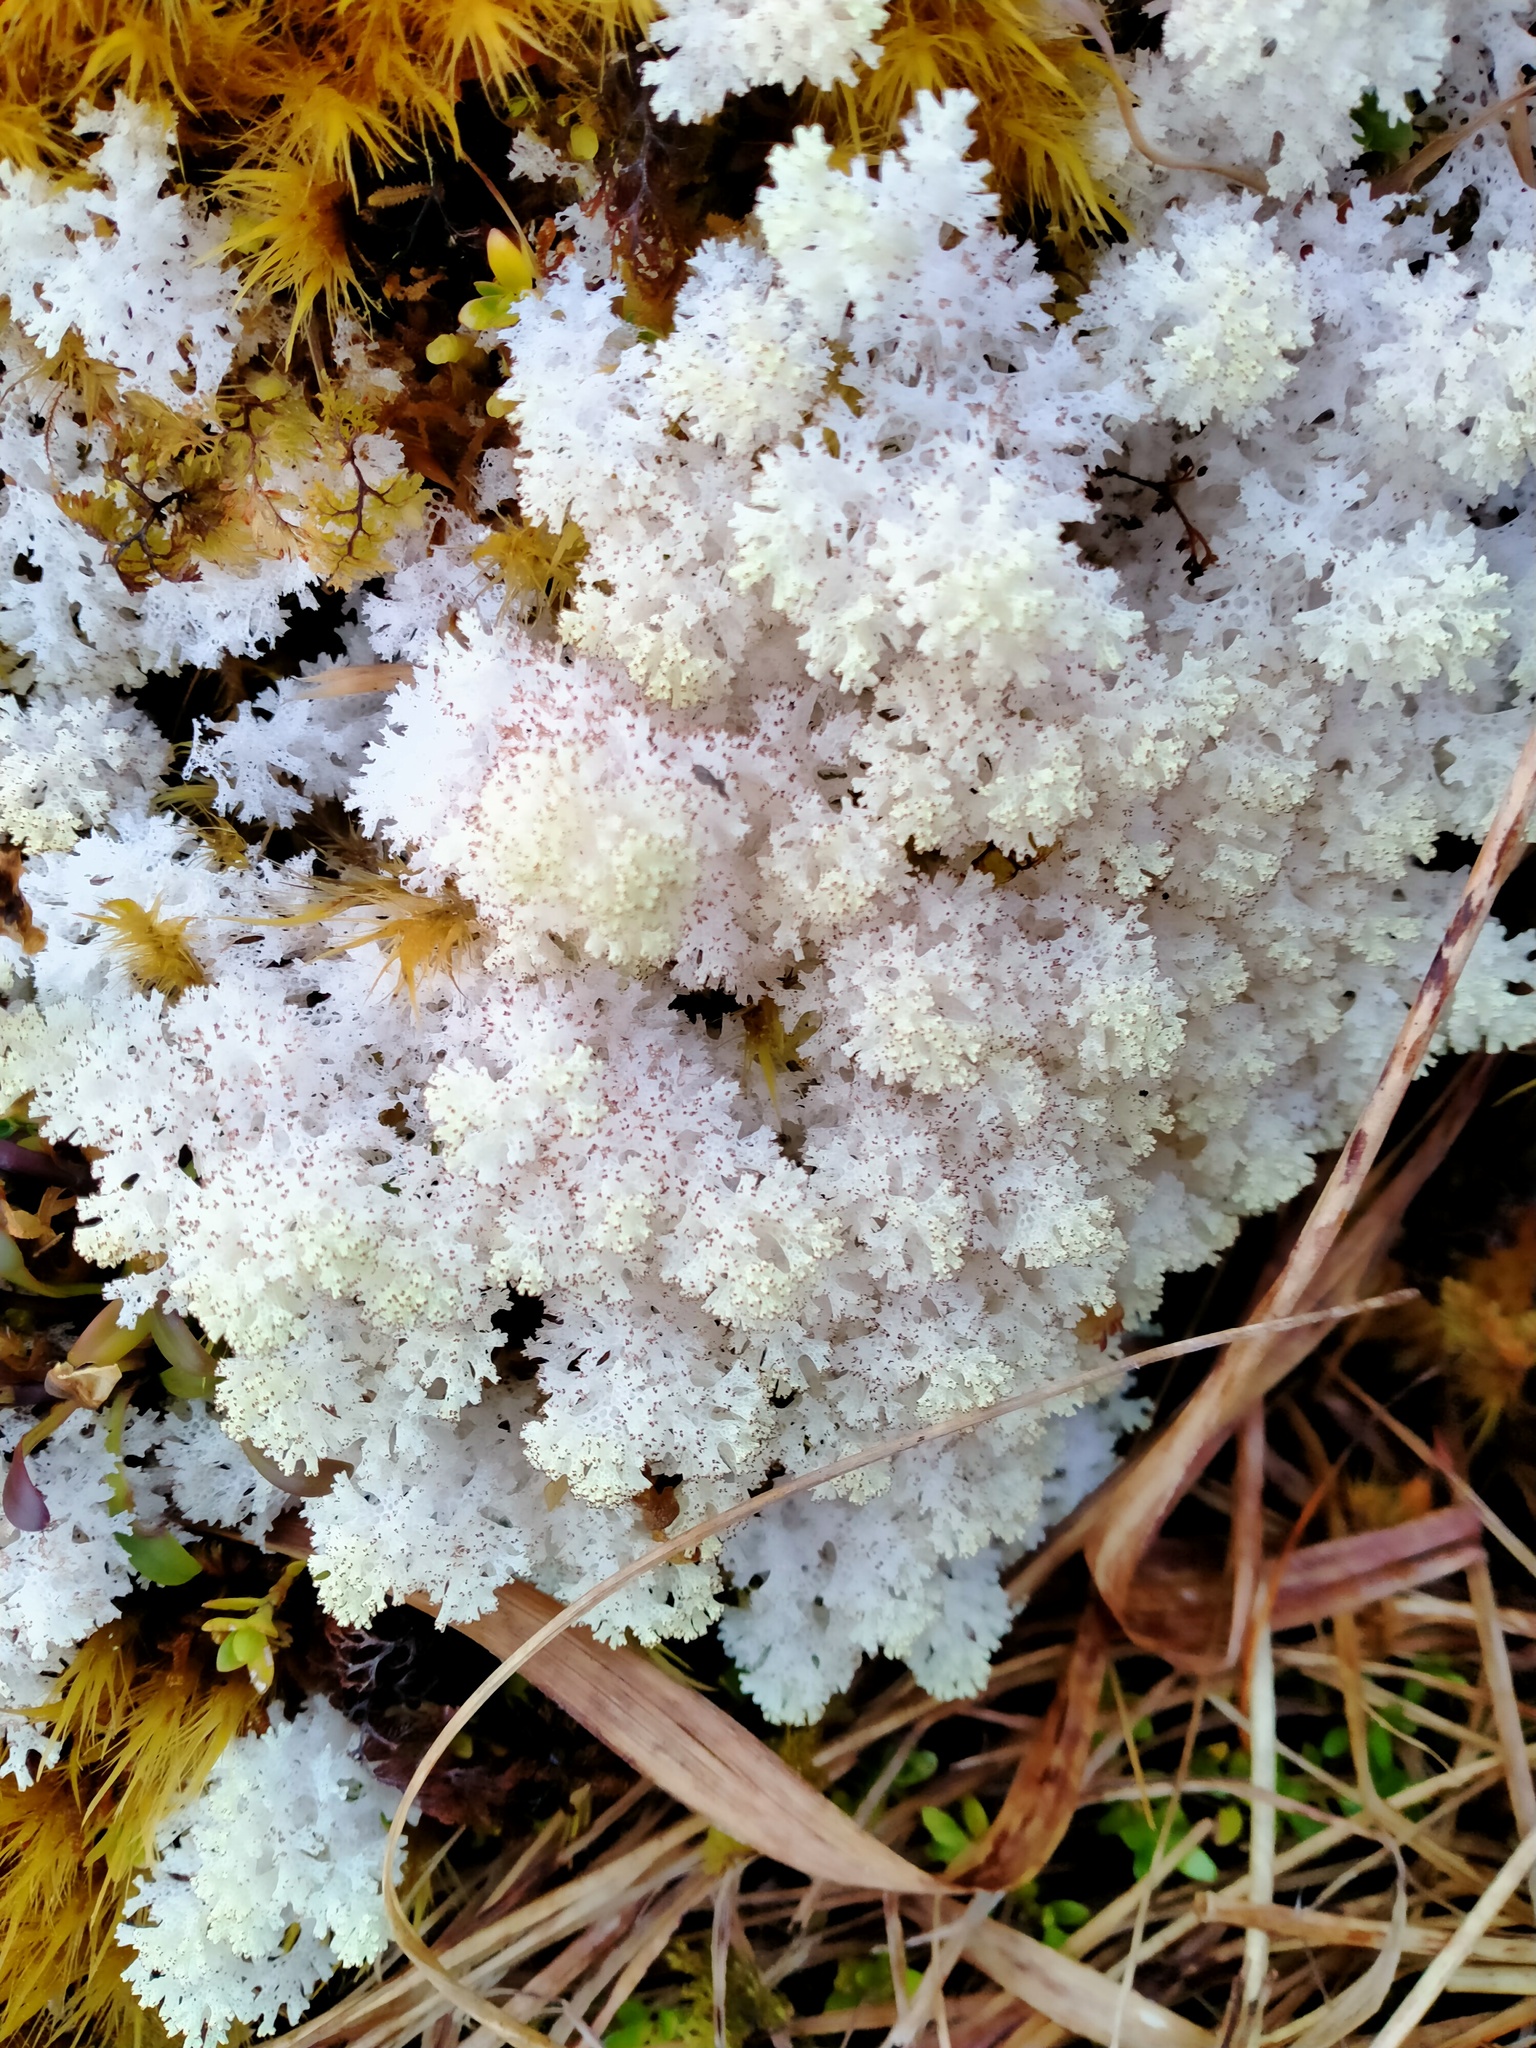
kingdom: Fungi
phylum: Ascomycota
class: Lecanoromycetes
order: Lecanorales
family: Cladoniaceae
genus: Pulchrocladia
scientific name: Pulchrocladia retipora
